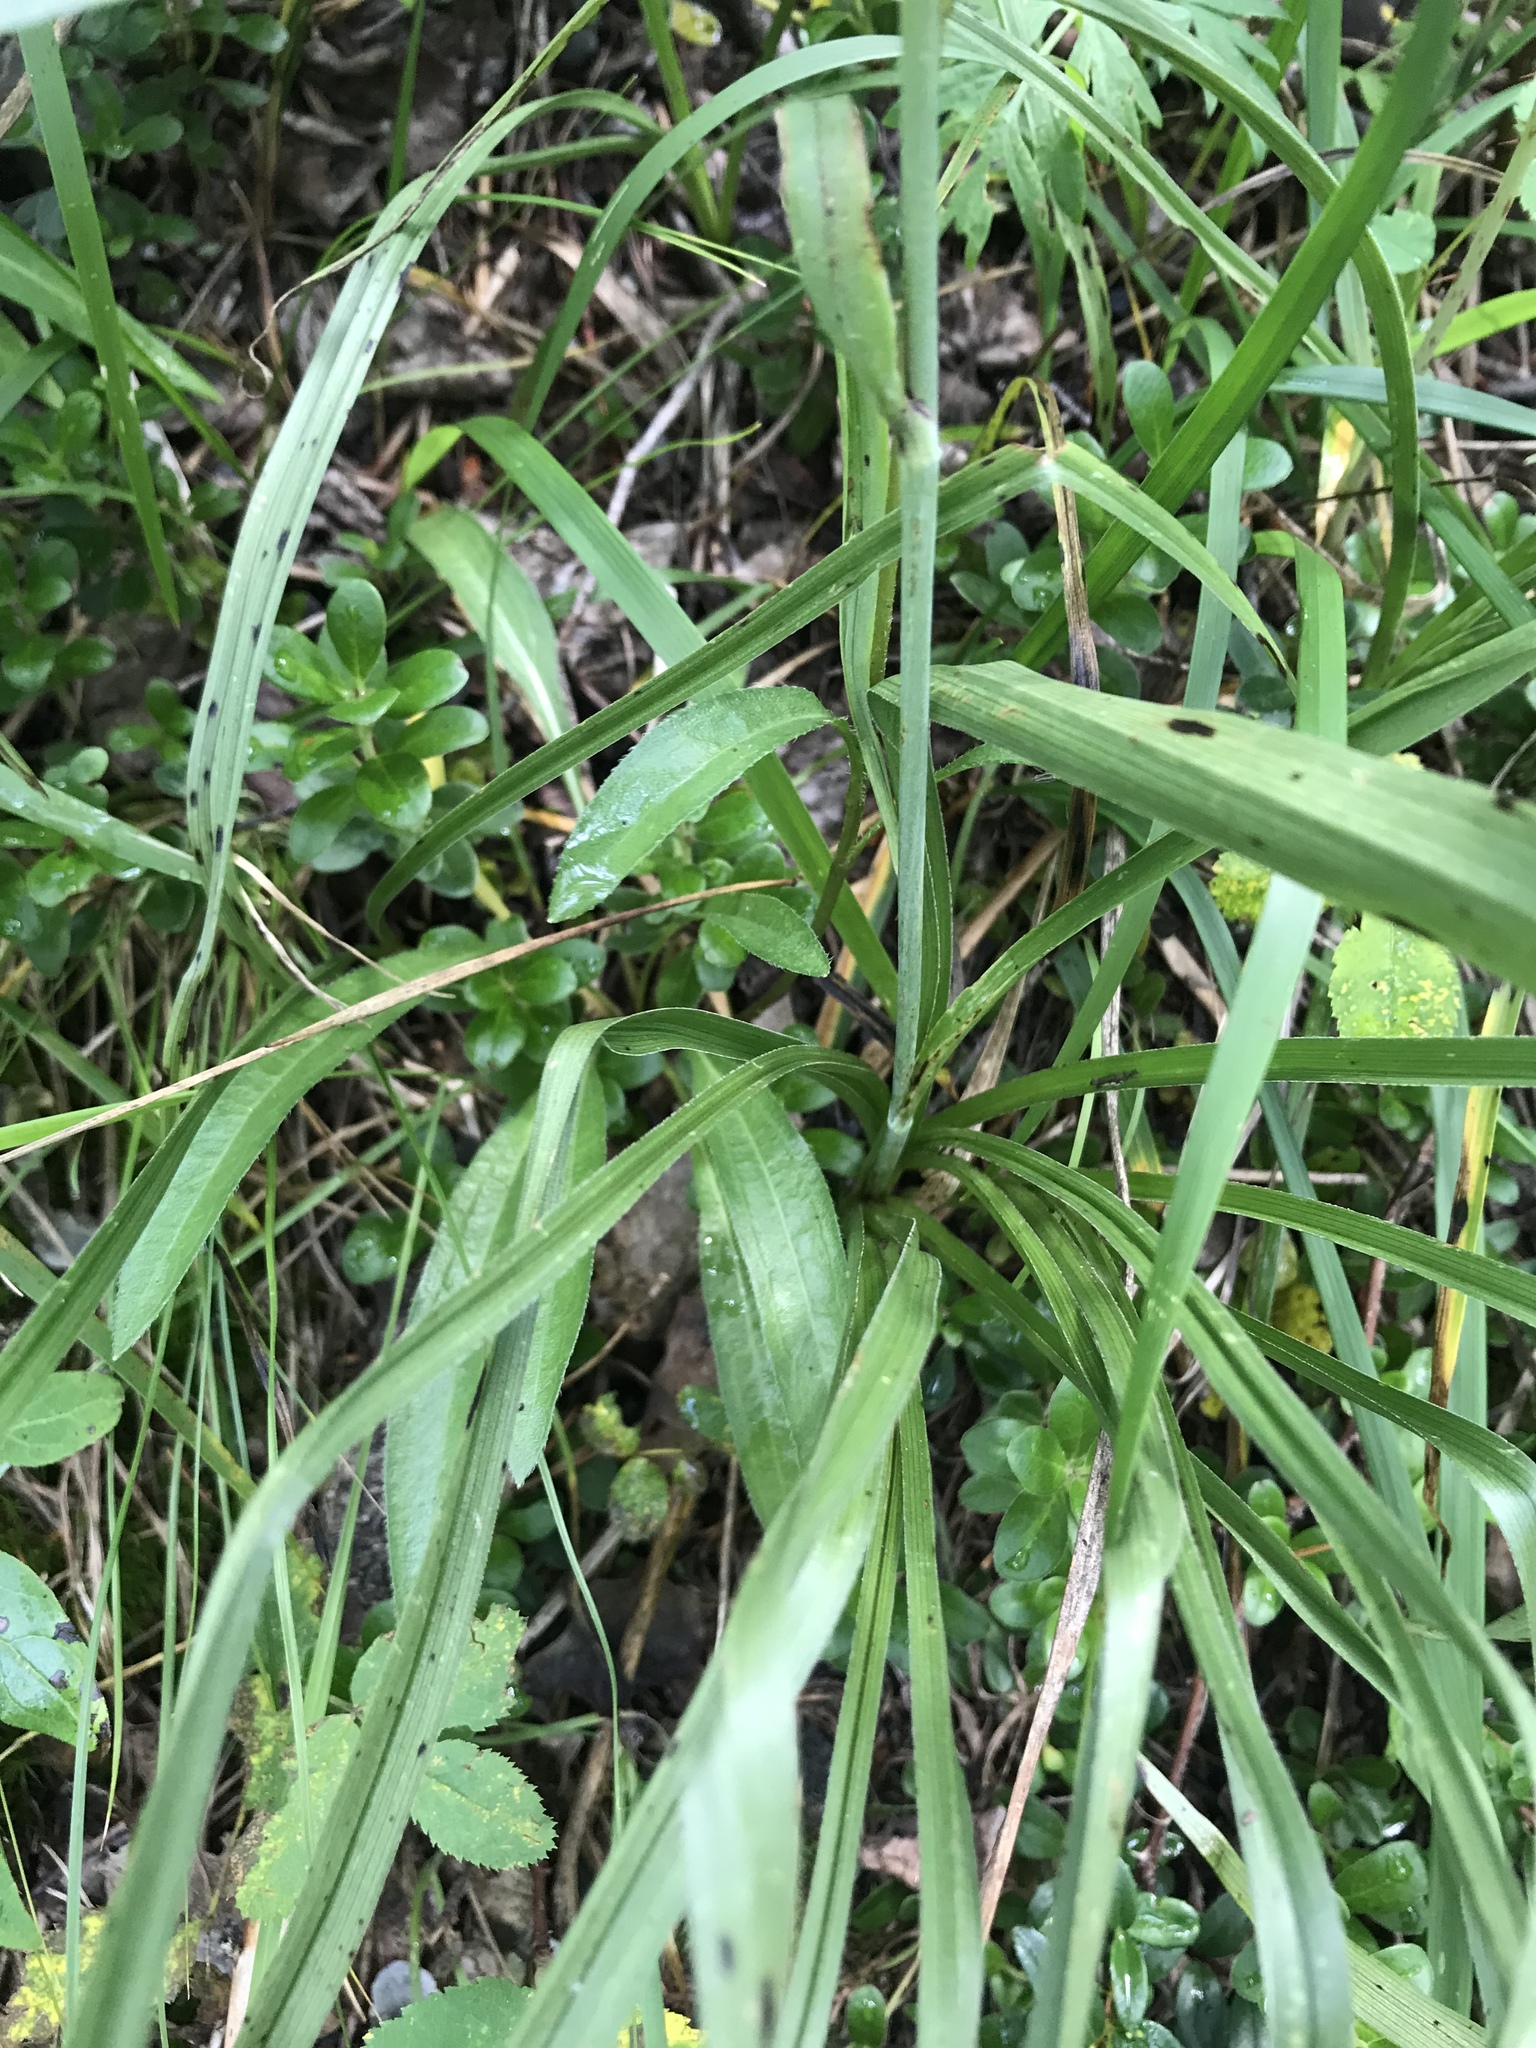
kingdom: Plantae
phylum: Tracheophyta
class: Liliopsida
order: Liliales
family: Melanthiaceae
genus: Anticlea
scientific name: Anticlea elegans
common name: Mountain death camas
